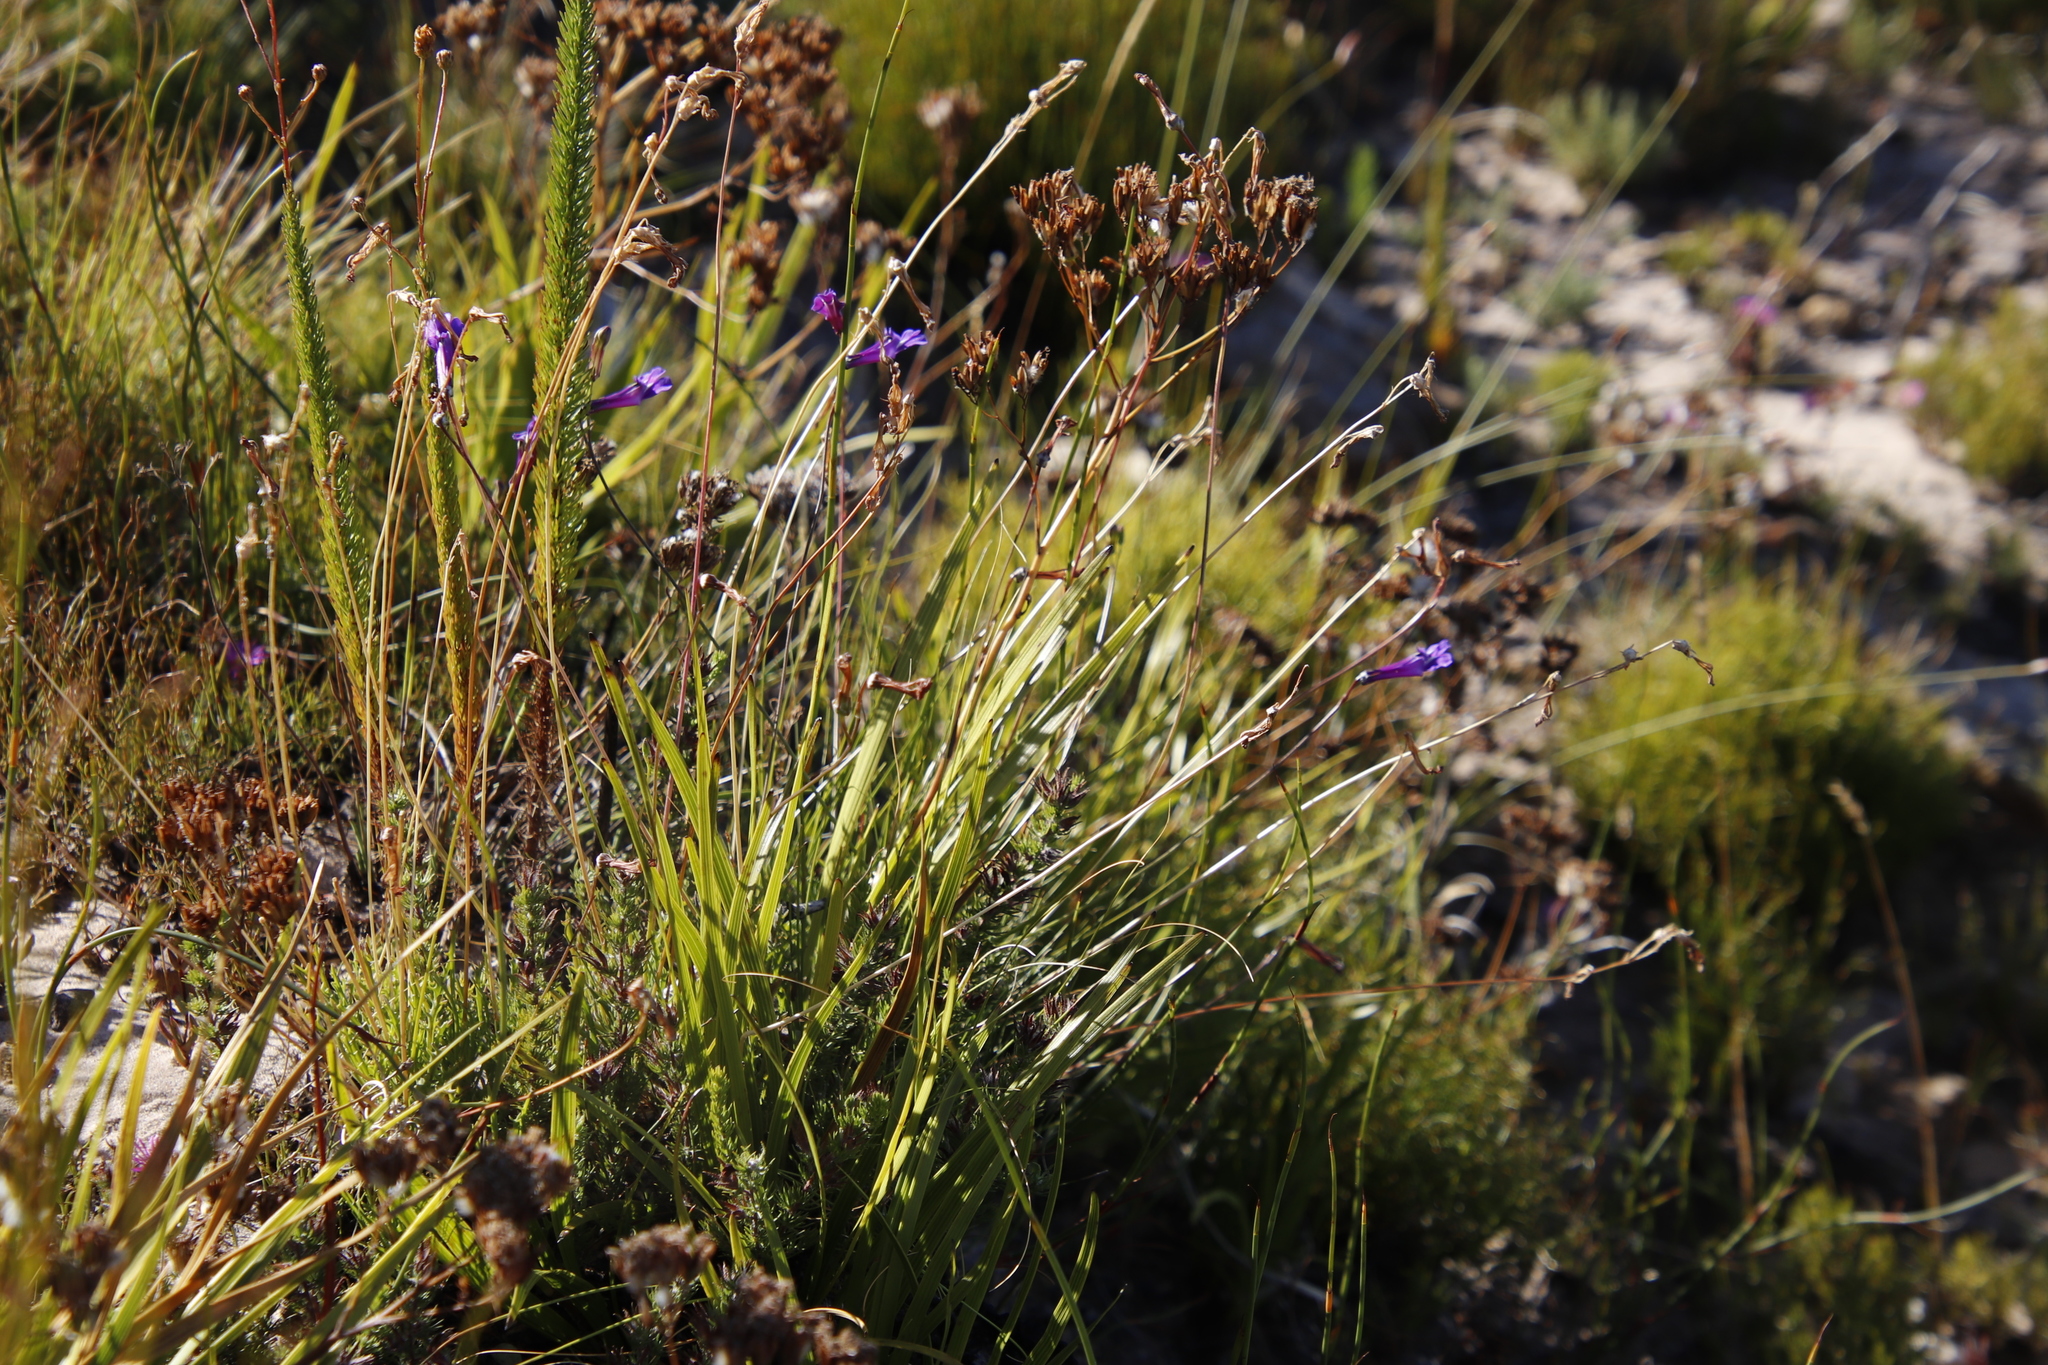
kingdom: Plantae
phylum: Tracheophyta
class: Magnoliopsida
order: Asterales
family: Campanulaceae
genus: Lobelia
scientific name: Lobelia coronopifolia
